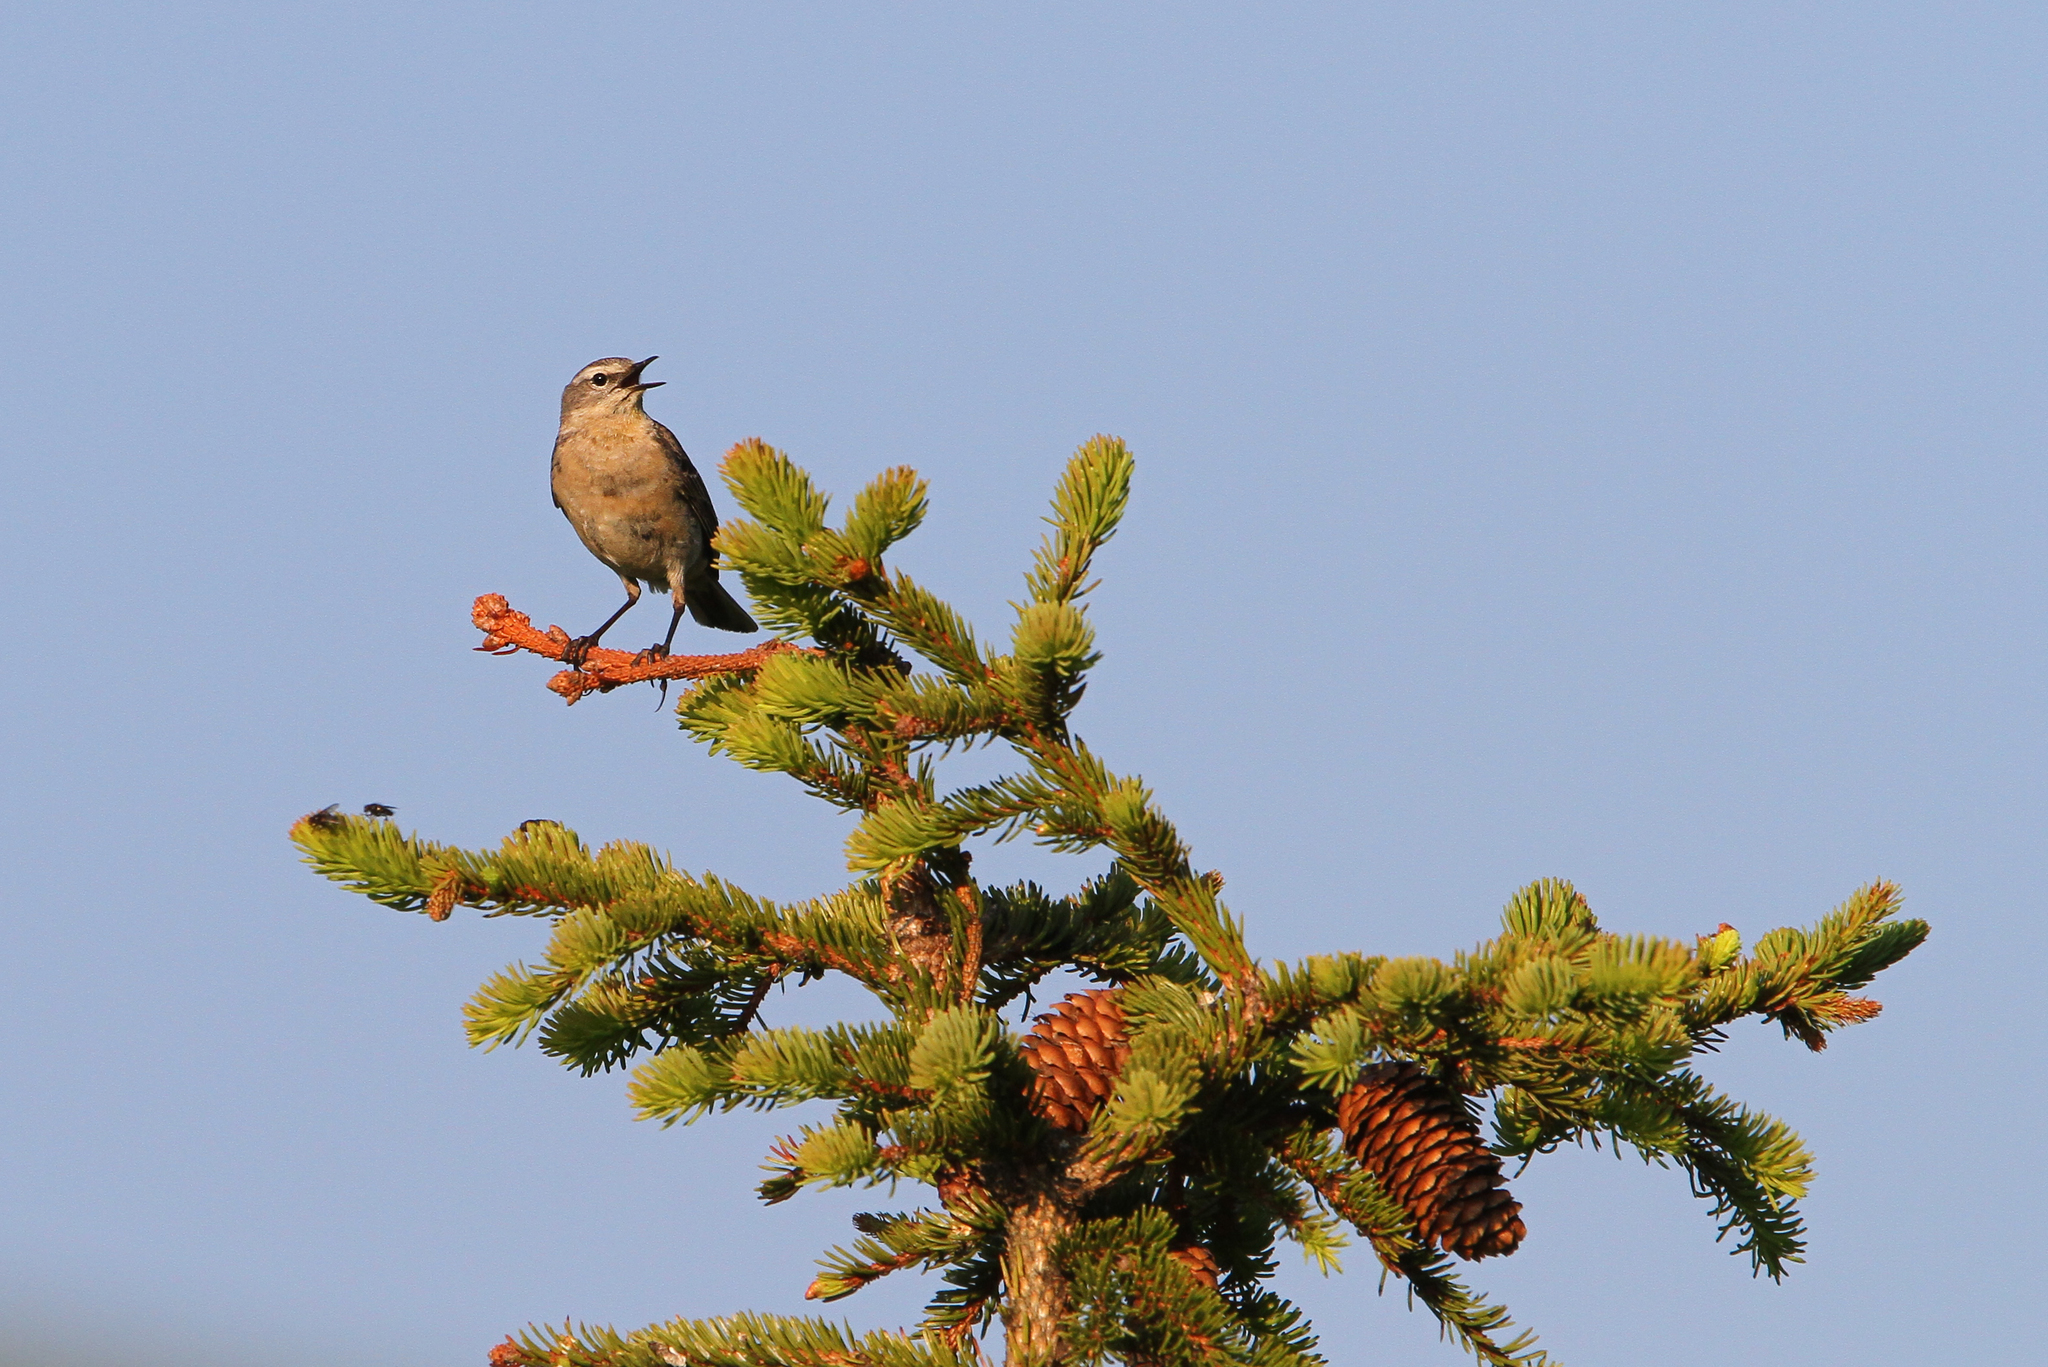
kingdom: Animalia
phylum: Chordata
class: Aves
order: Passeriformes
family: Motacillidae
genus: Anthus
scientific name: Anthus spinoletta
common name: Water pipit
